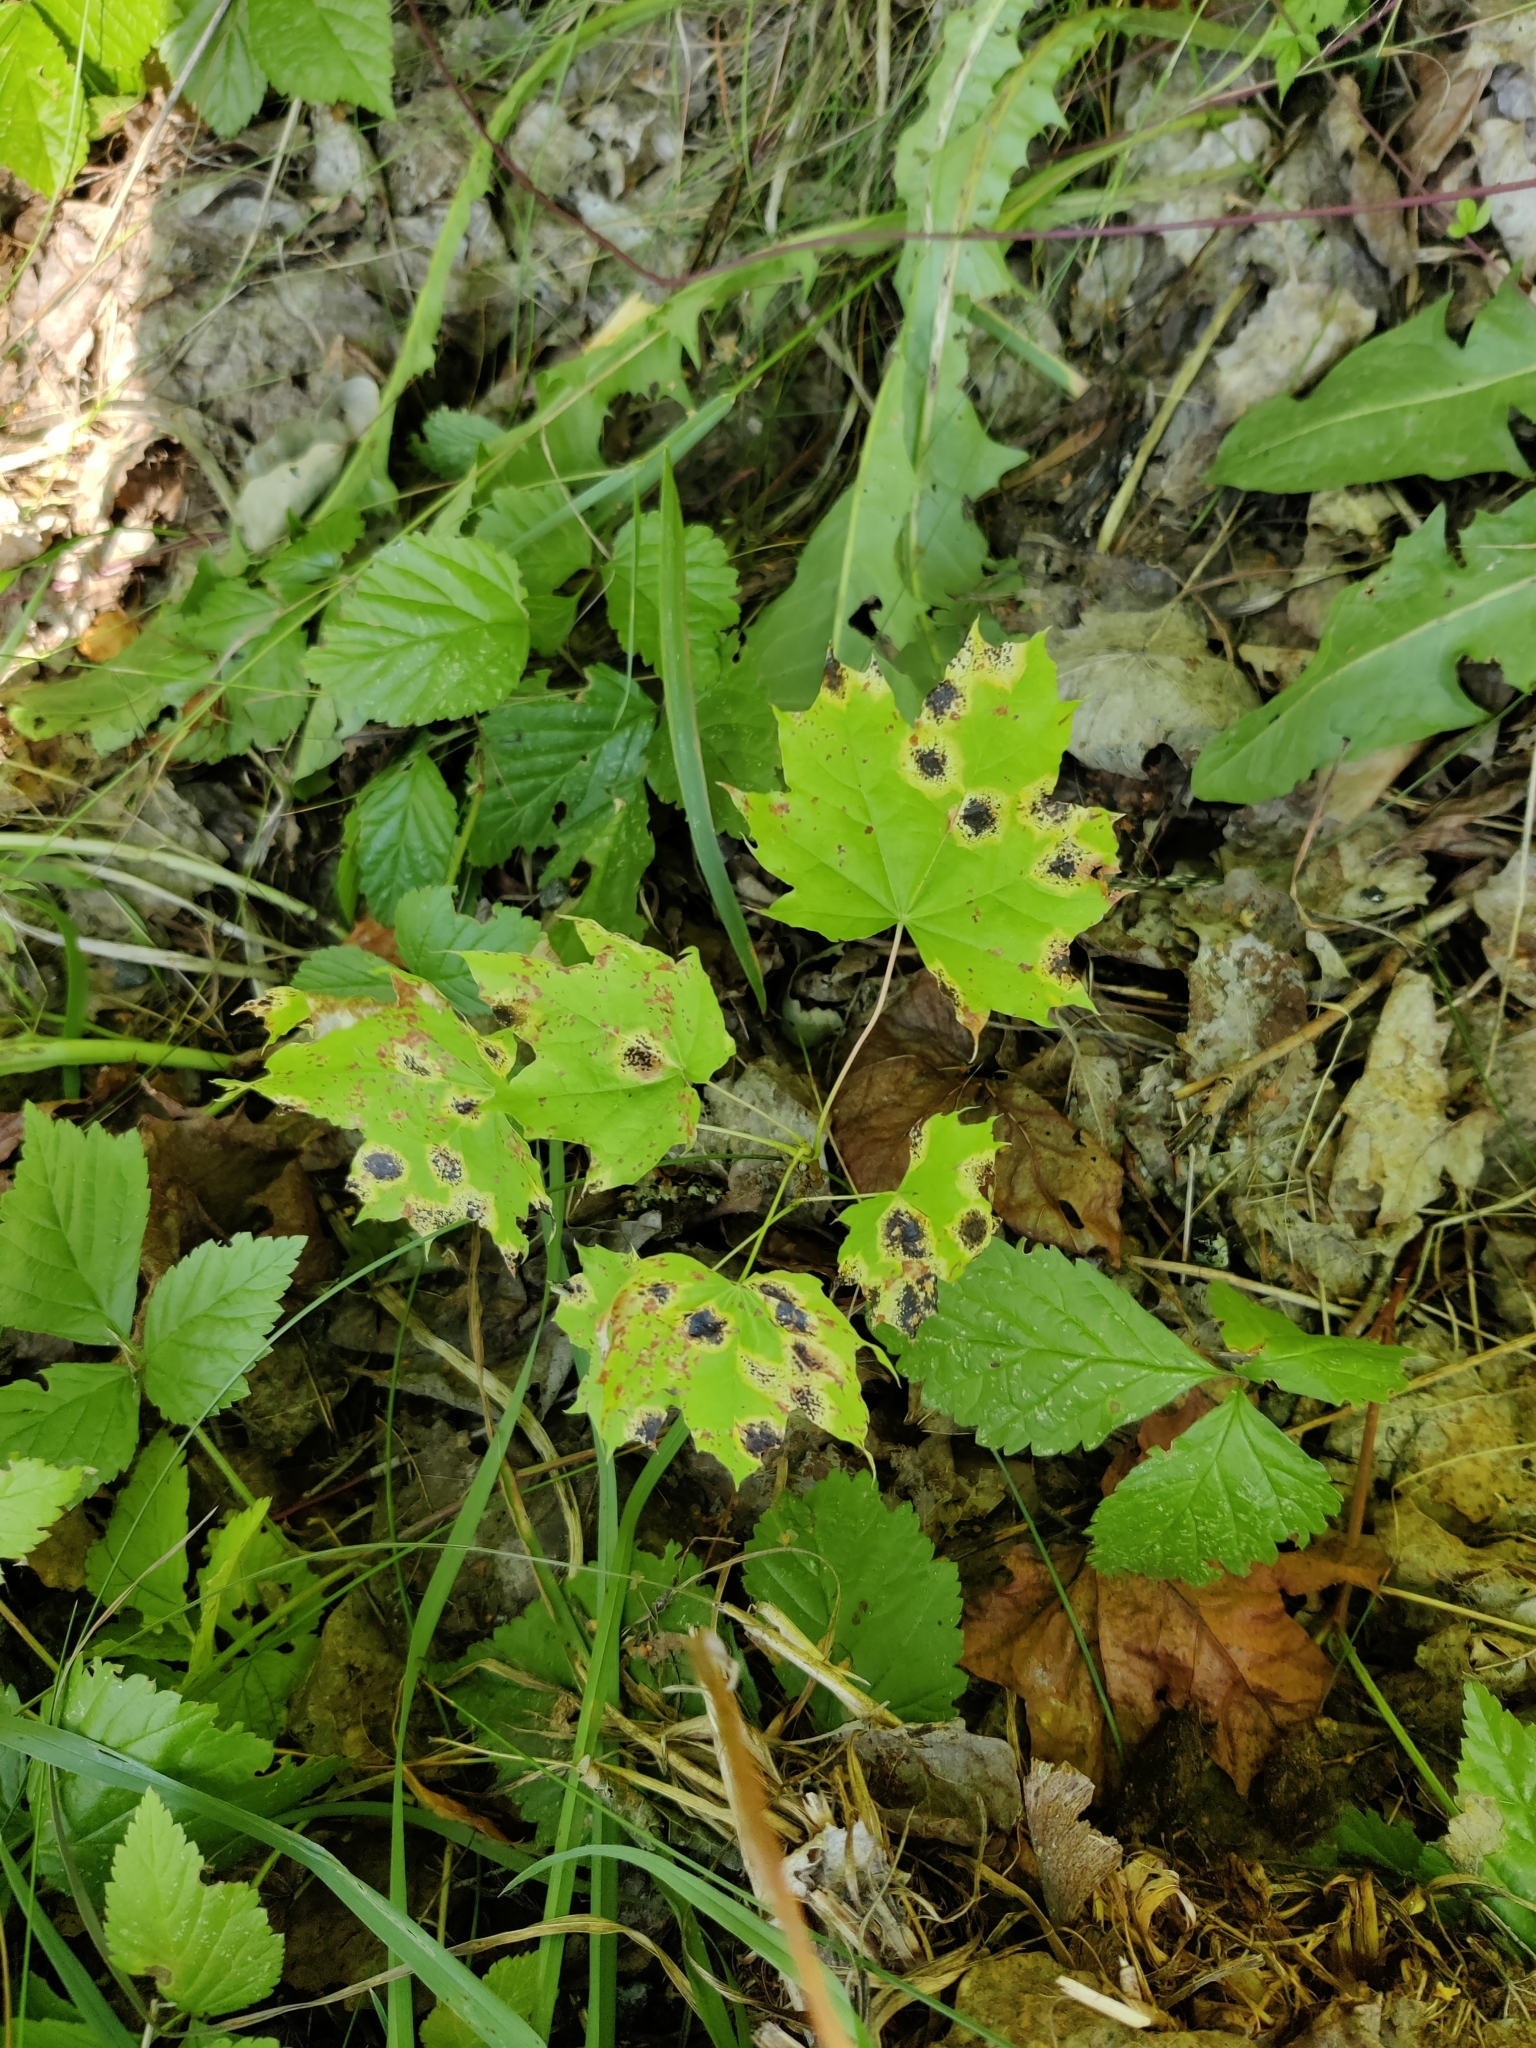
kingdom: Fungi
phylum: Ascomycota
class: Leotiomycetes
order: Rhytismatales
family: Rhytismataceae
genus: Rhytisma
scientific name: Rhytisma acerinum
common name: European tar spot
